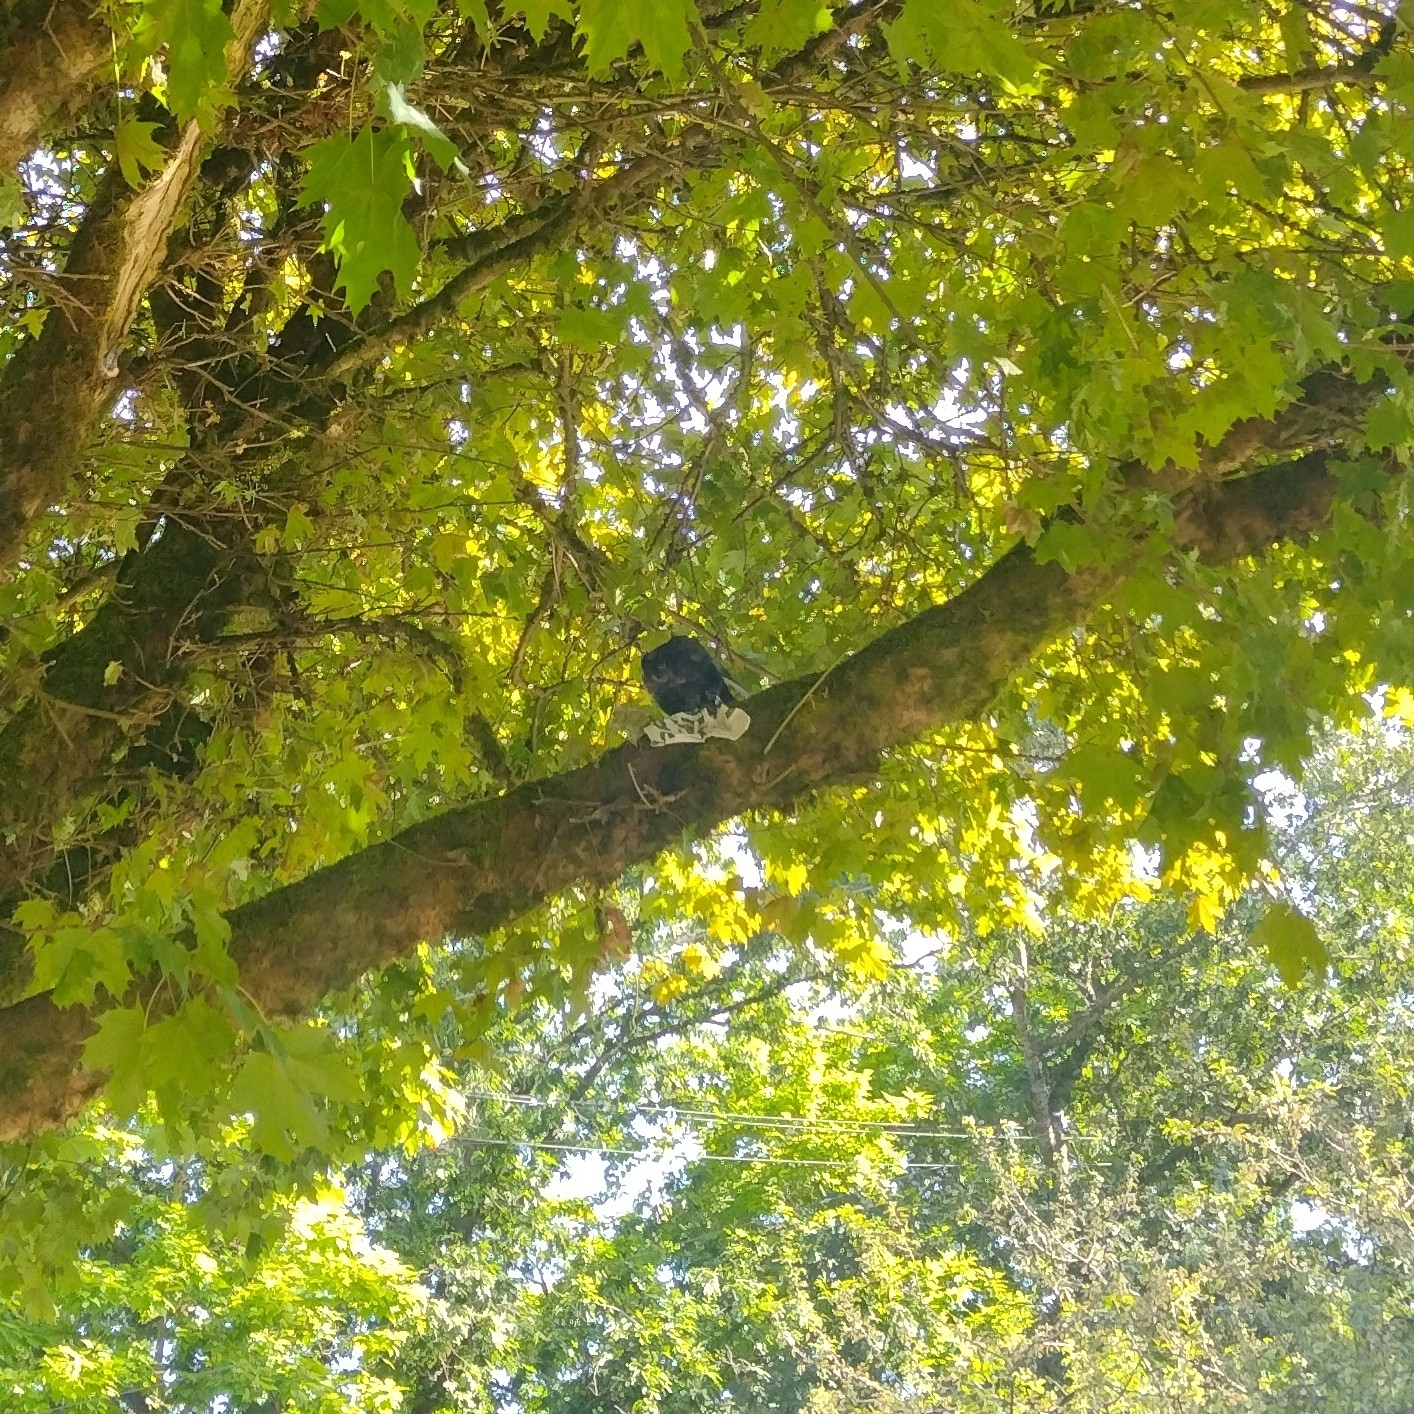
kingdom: Animalia
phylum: Chordata
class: Aves
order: Passeriformes
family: Corvidae
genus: Corvus
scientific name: Corvus brachyrhynchos
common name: American crow
